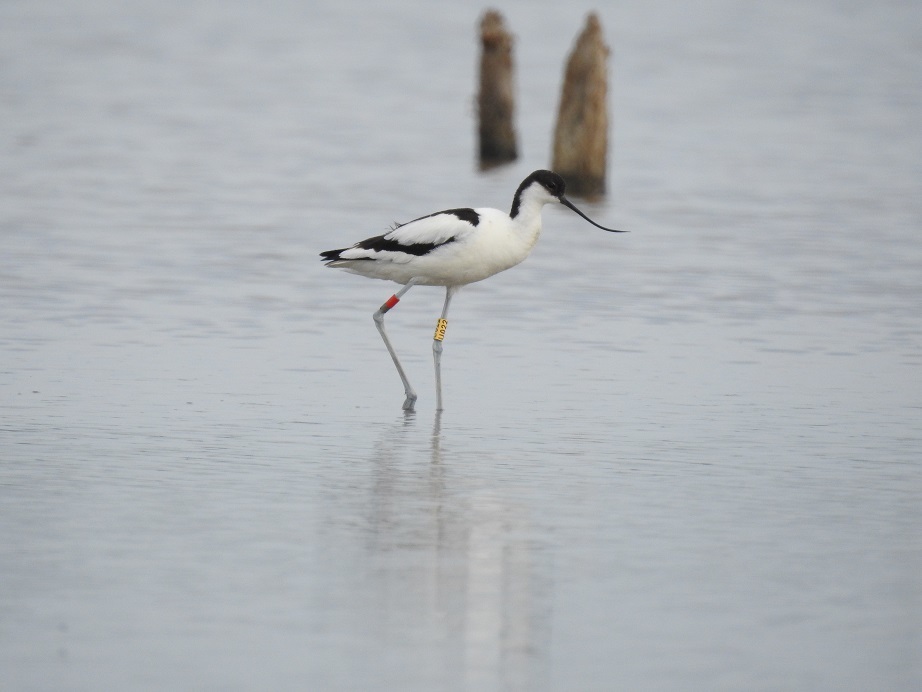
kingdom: Animalia
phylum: Chordata
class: Aves
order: Charadriiformes
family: Recurvirostridae
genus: Recurvirostra
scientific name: Recurvirostra avosetta
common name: Pied avocet
